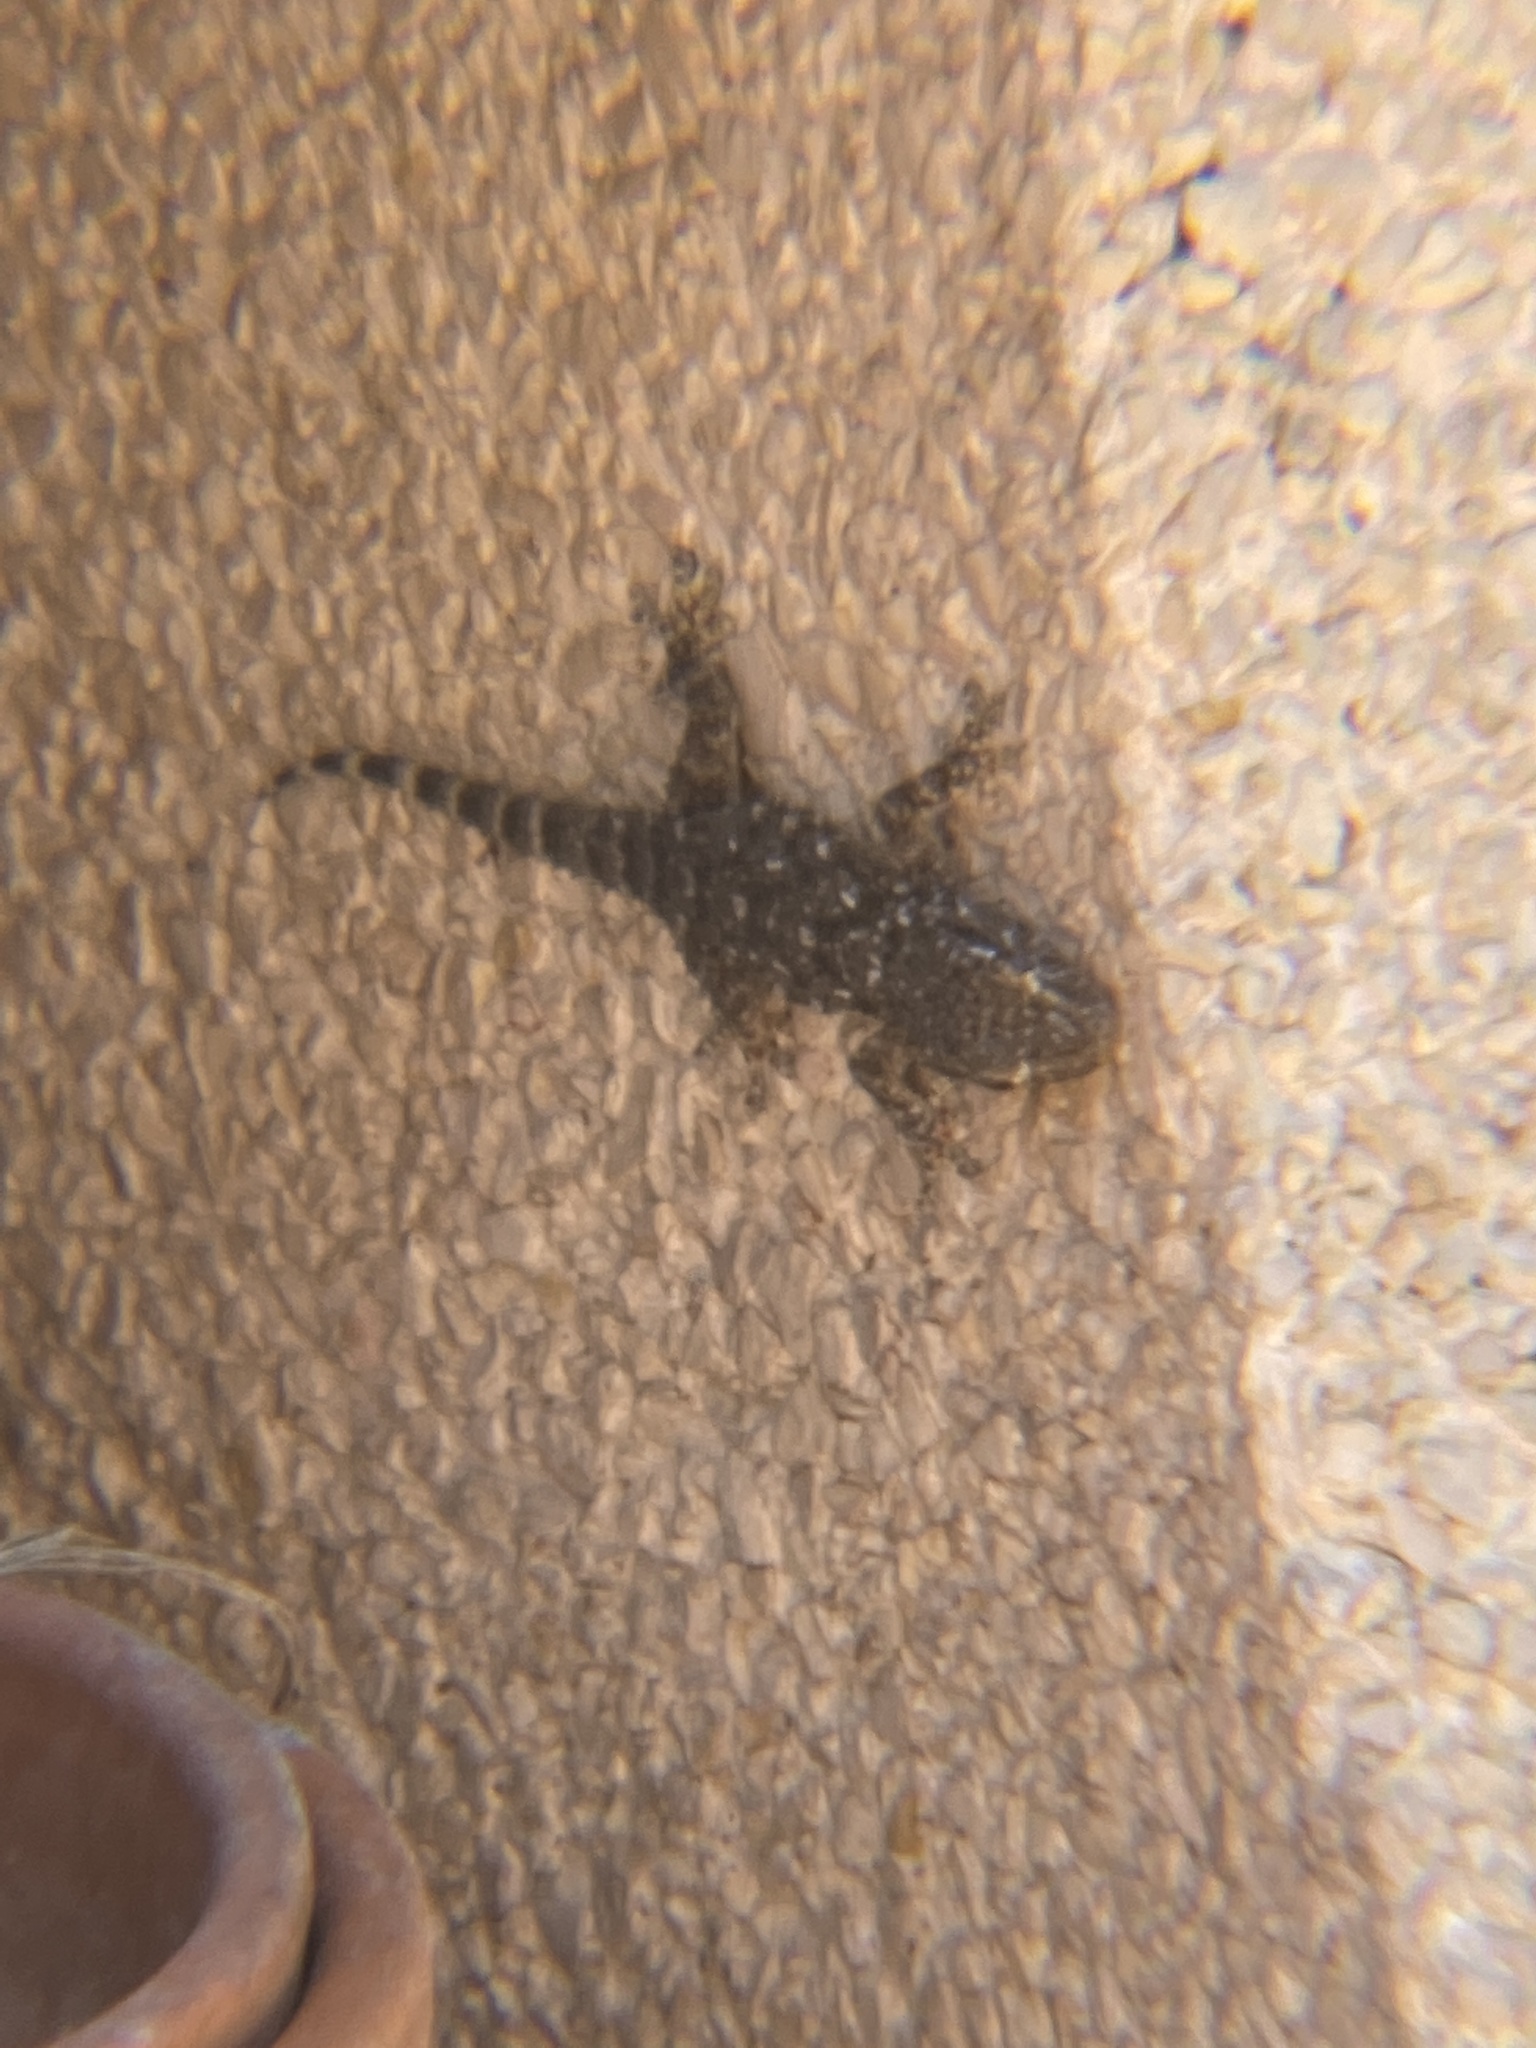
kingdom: Animalia
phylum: Chordata
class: Squamata
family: Phyllodactylidae
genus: Tarentola
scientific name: Tarentola mauritanica
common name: Moorish gecko
